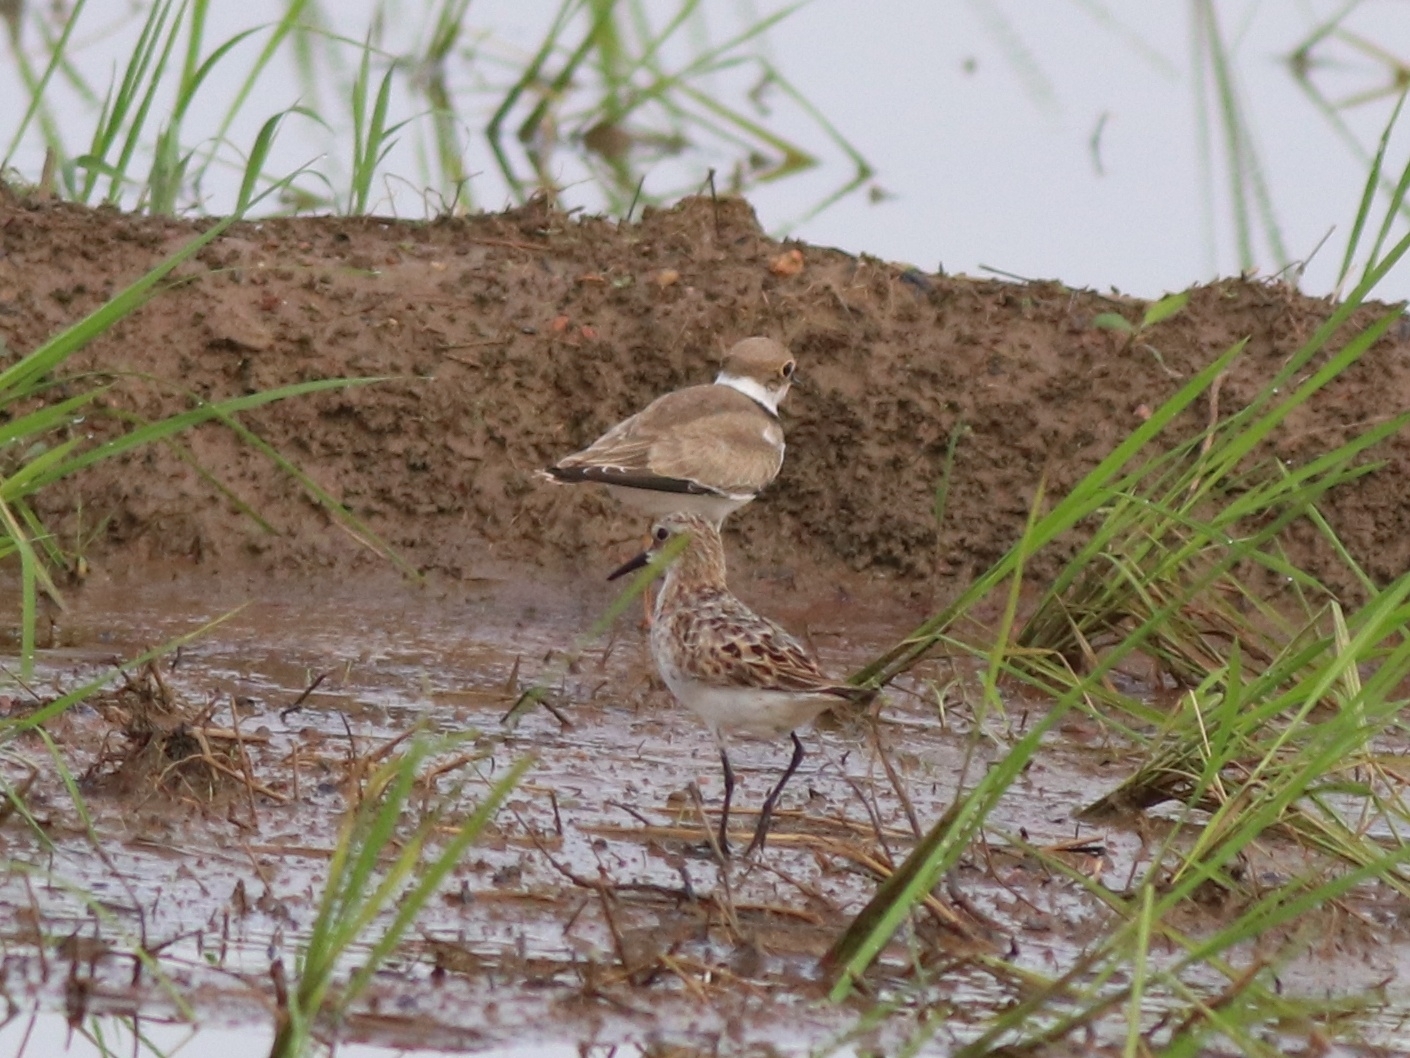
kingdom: Animalia
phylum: Chordata
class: Aves
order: Charadriiformes
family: Charadriidae
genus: Charadrius
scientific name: Charadrius dubius
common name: Little ringed plover
